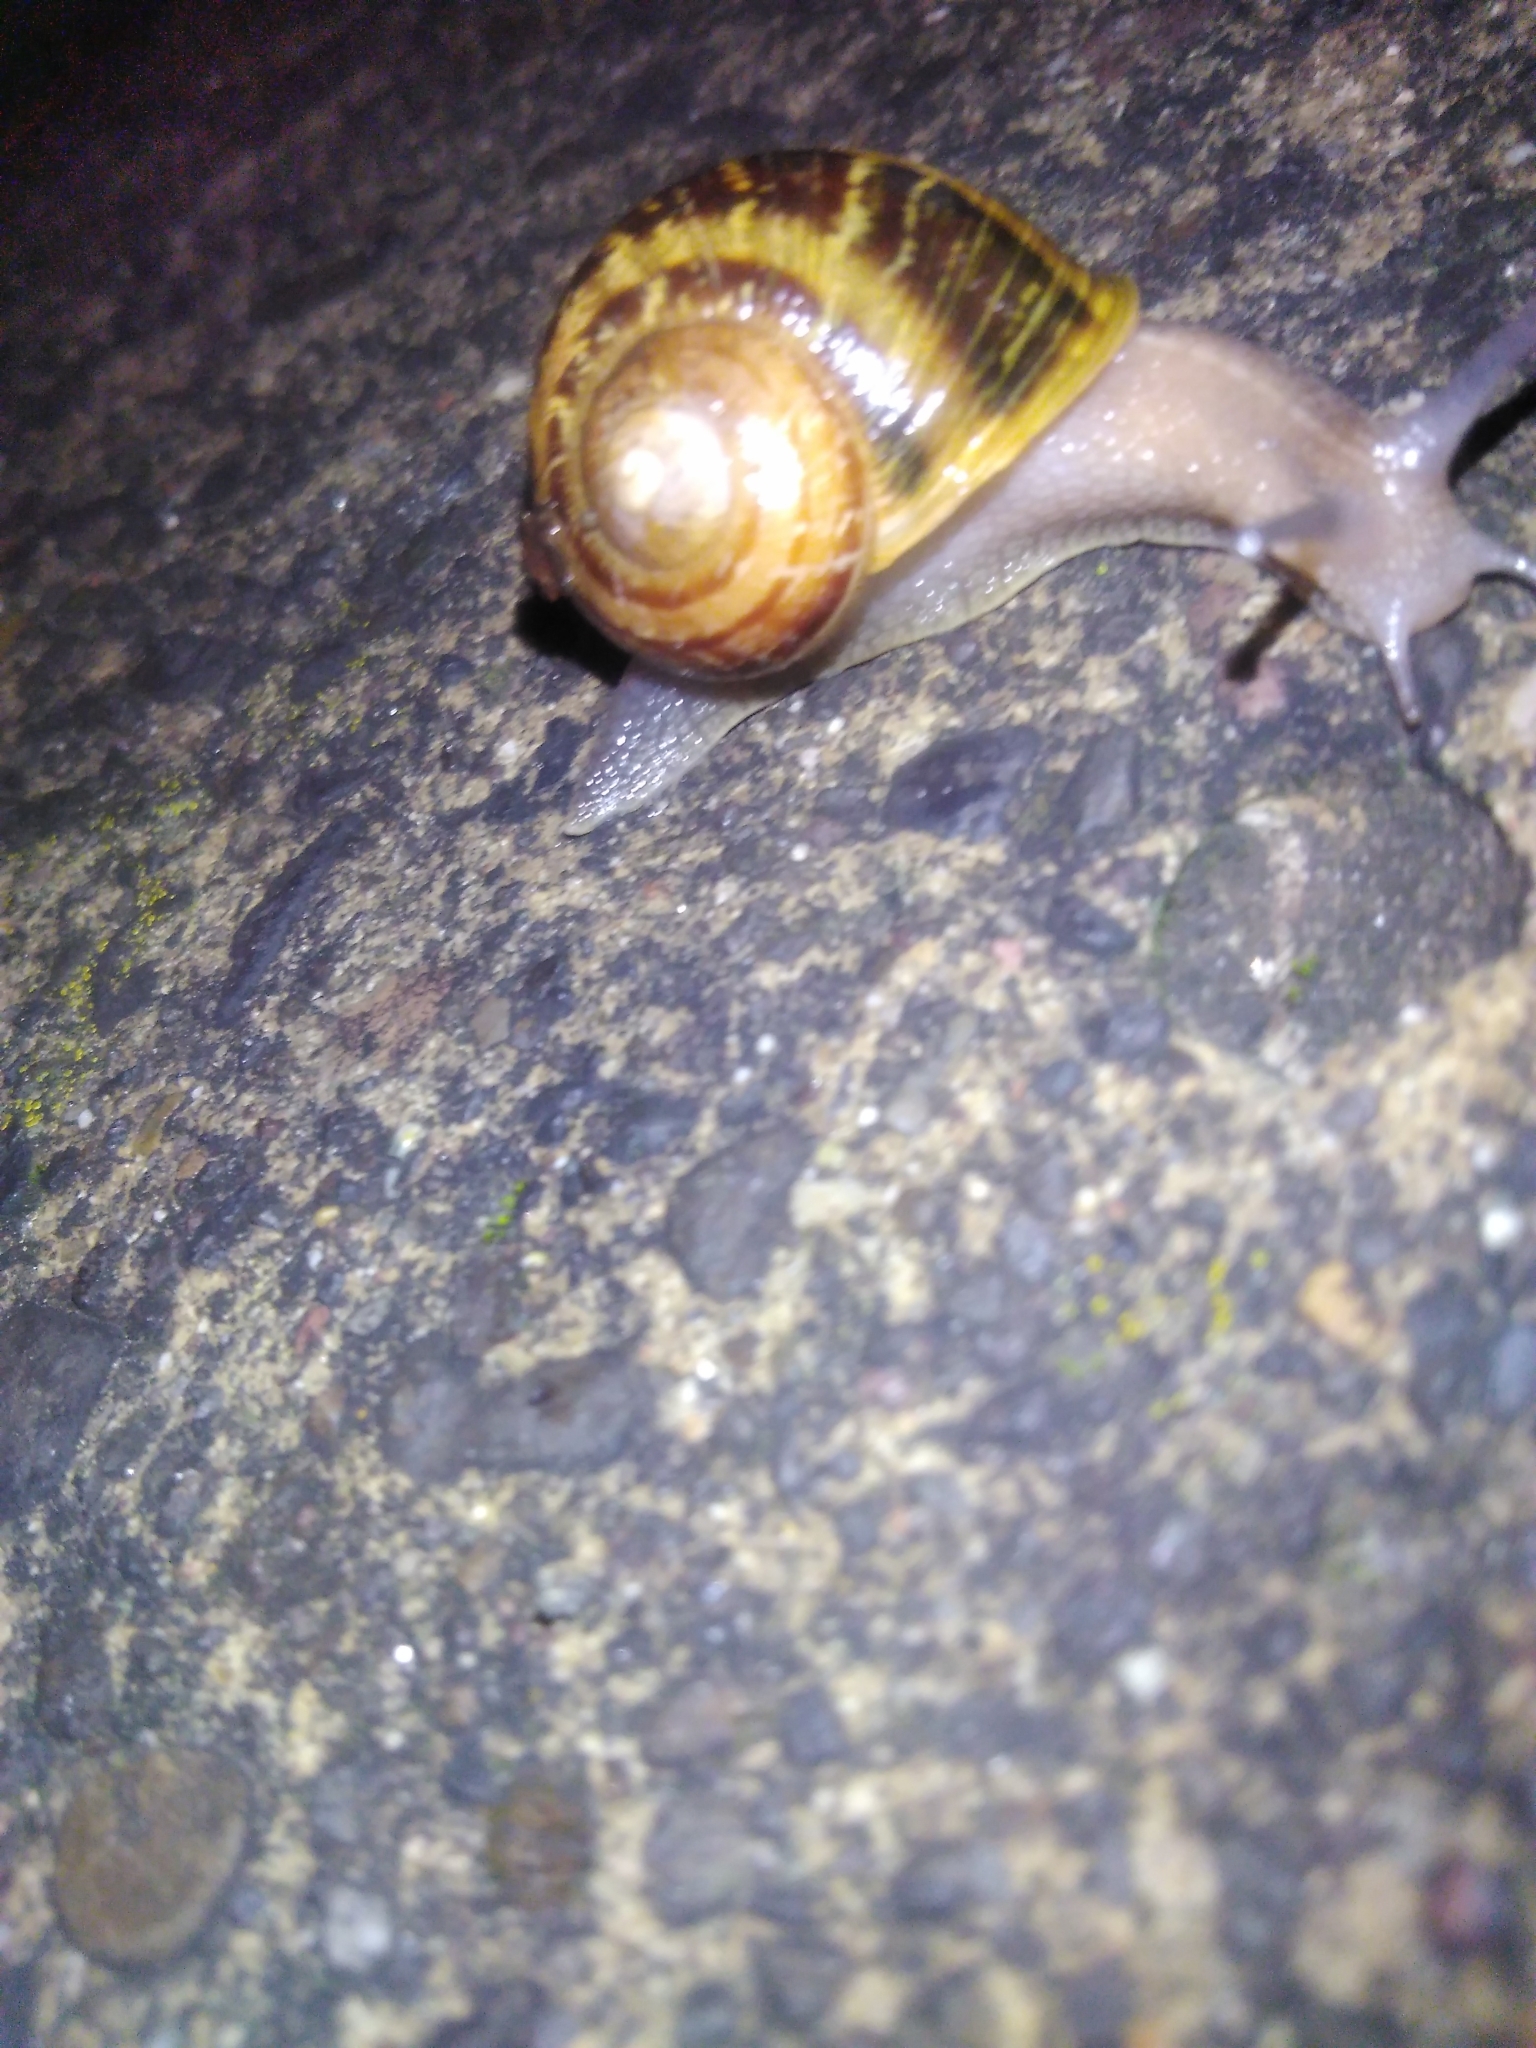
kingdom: Animalia
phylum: Mollusca
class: Gastropoda
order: Stylommatophora
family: Helicidae
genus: Cornu
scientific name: Cornu aspersum
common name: Brown garden snail
